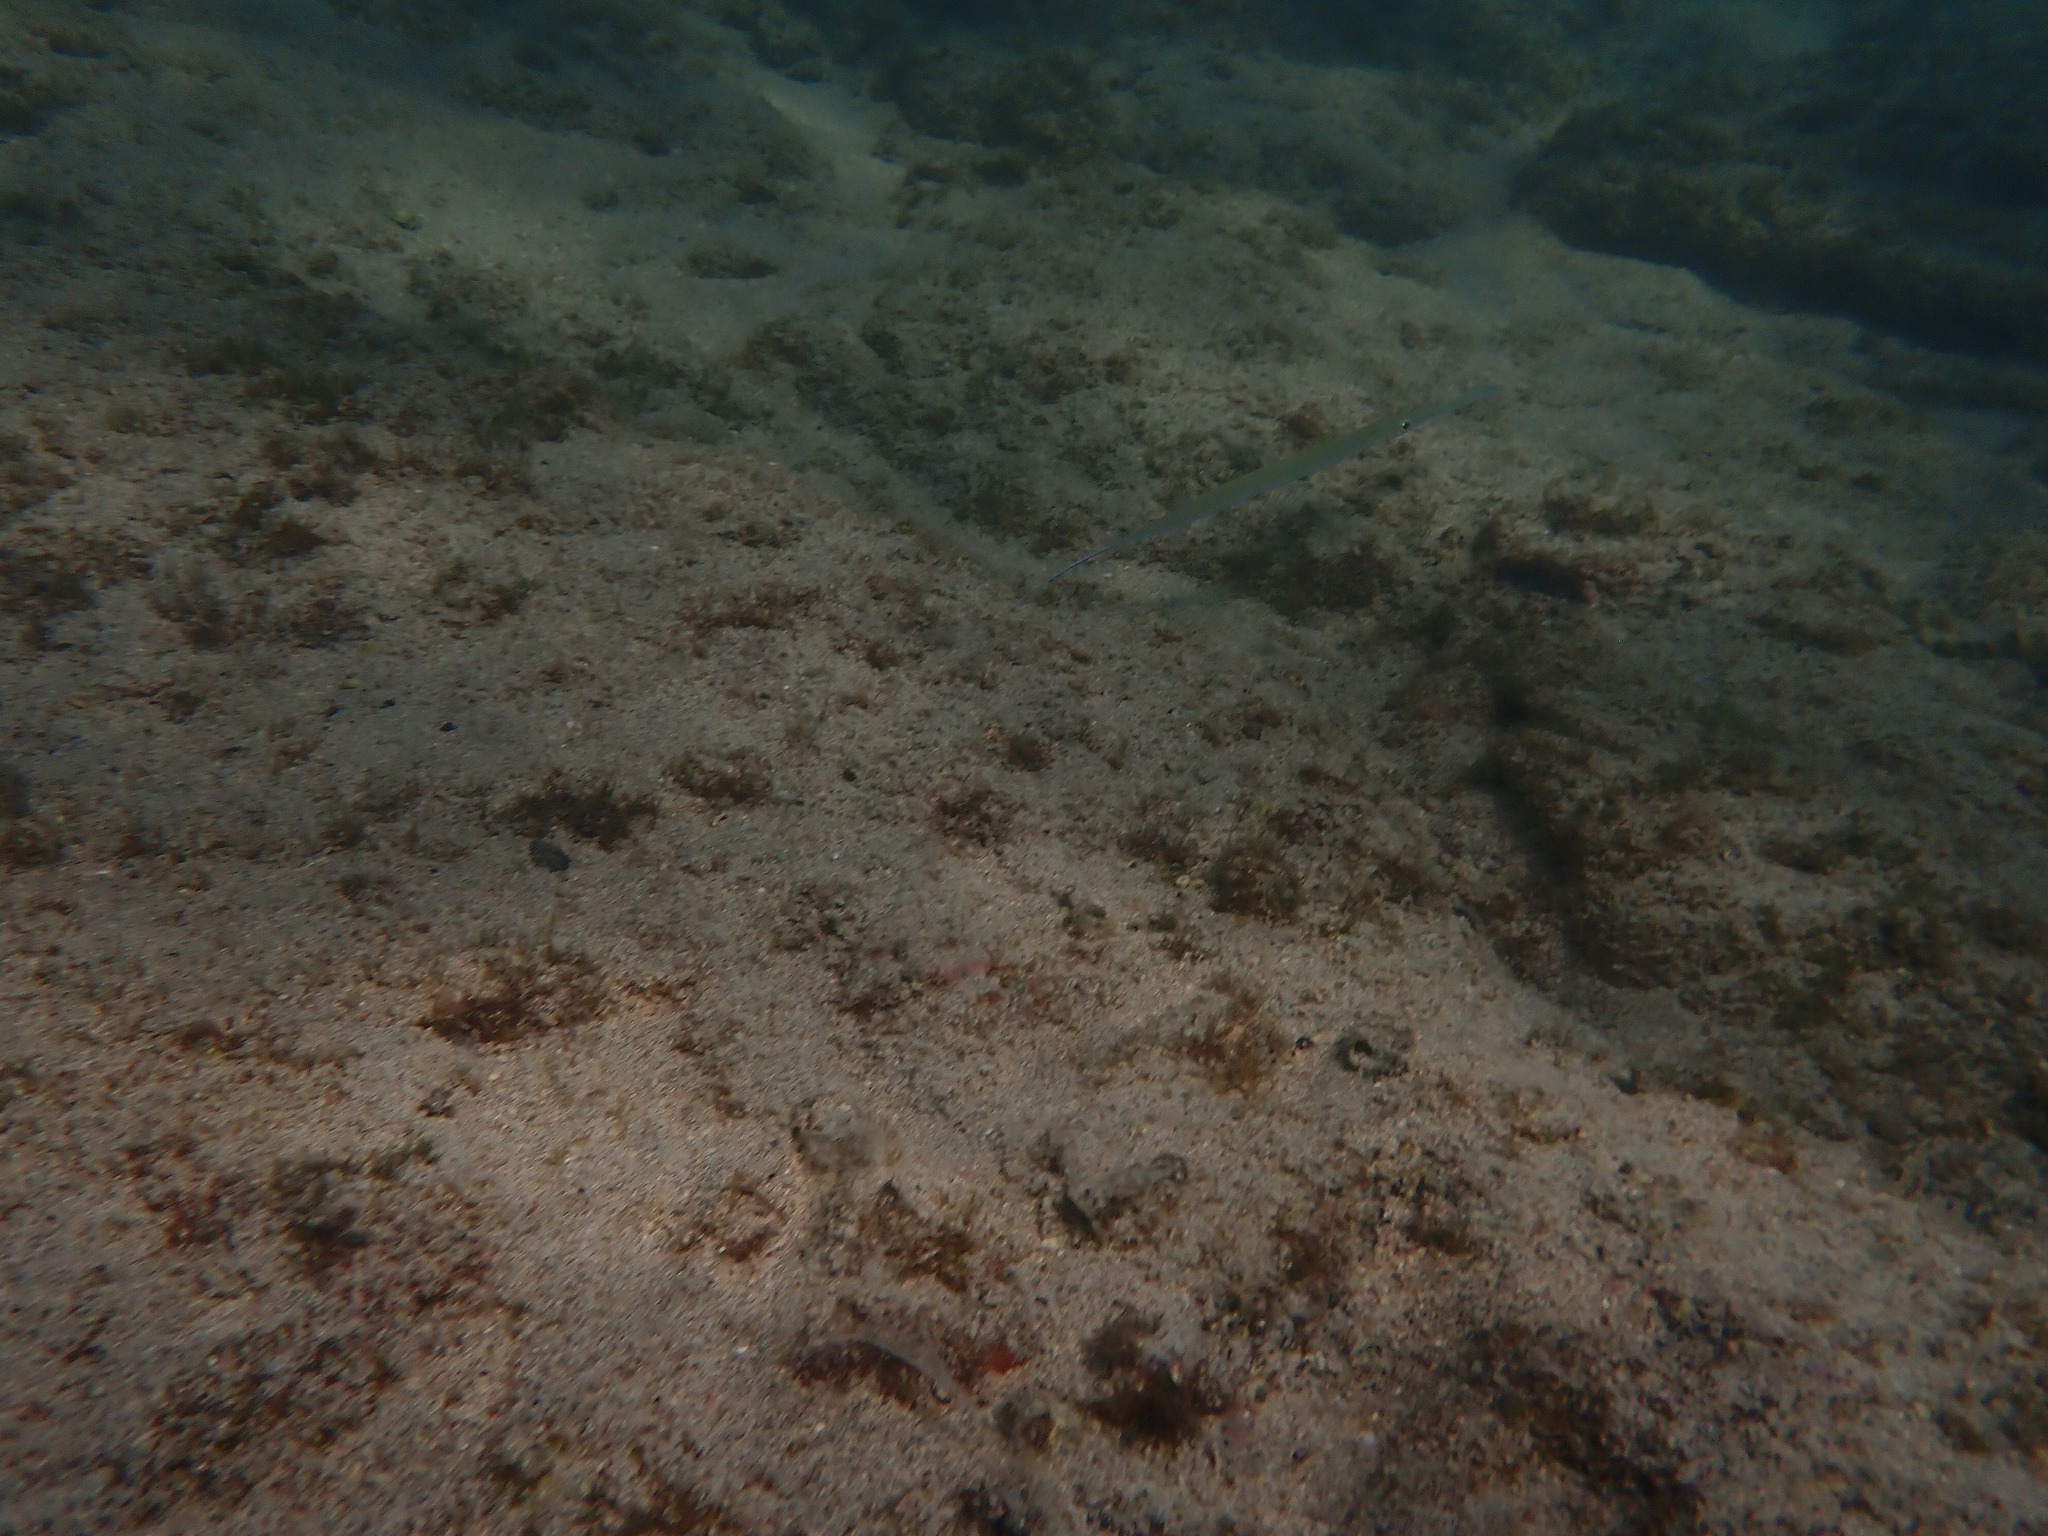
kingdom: Animalia
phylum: Chordata
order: Syngnathiformes
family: Fistulariidae
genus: Fistularia
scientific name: Fistularia commersonii
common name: Bluespotted cornetfish
